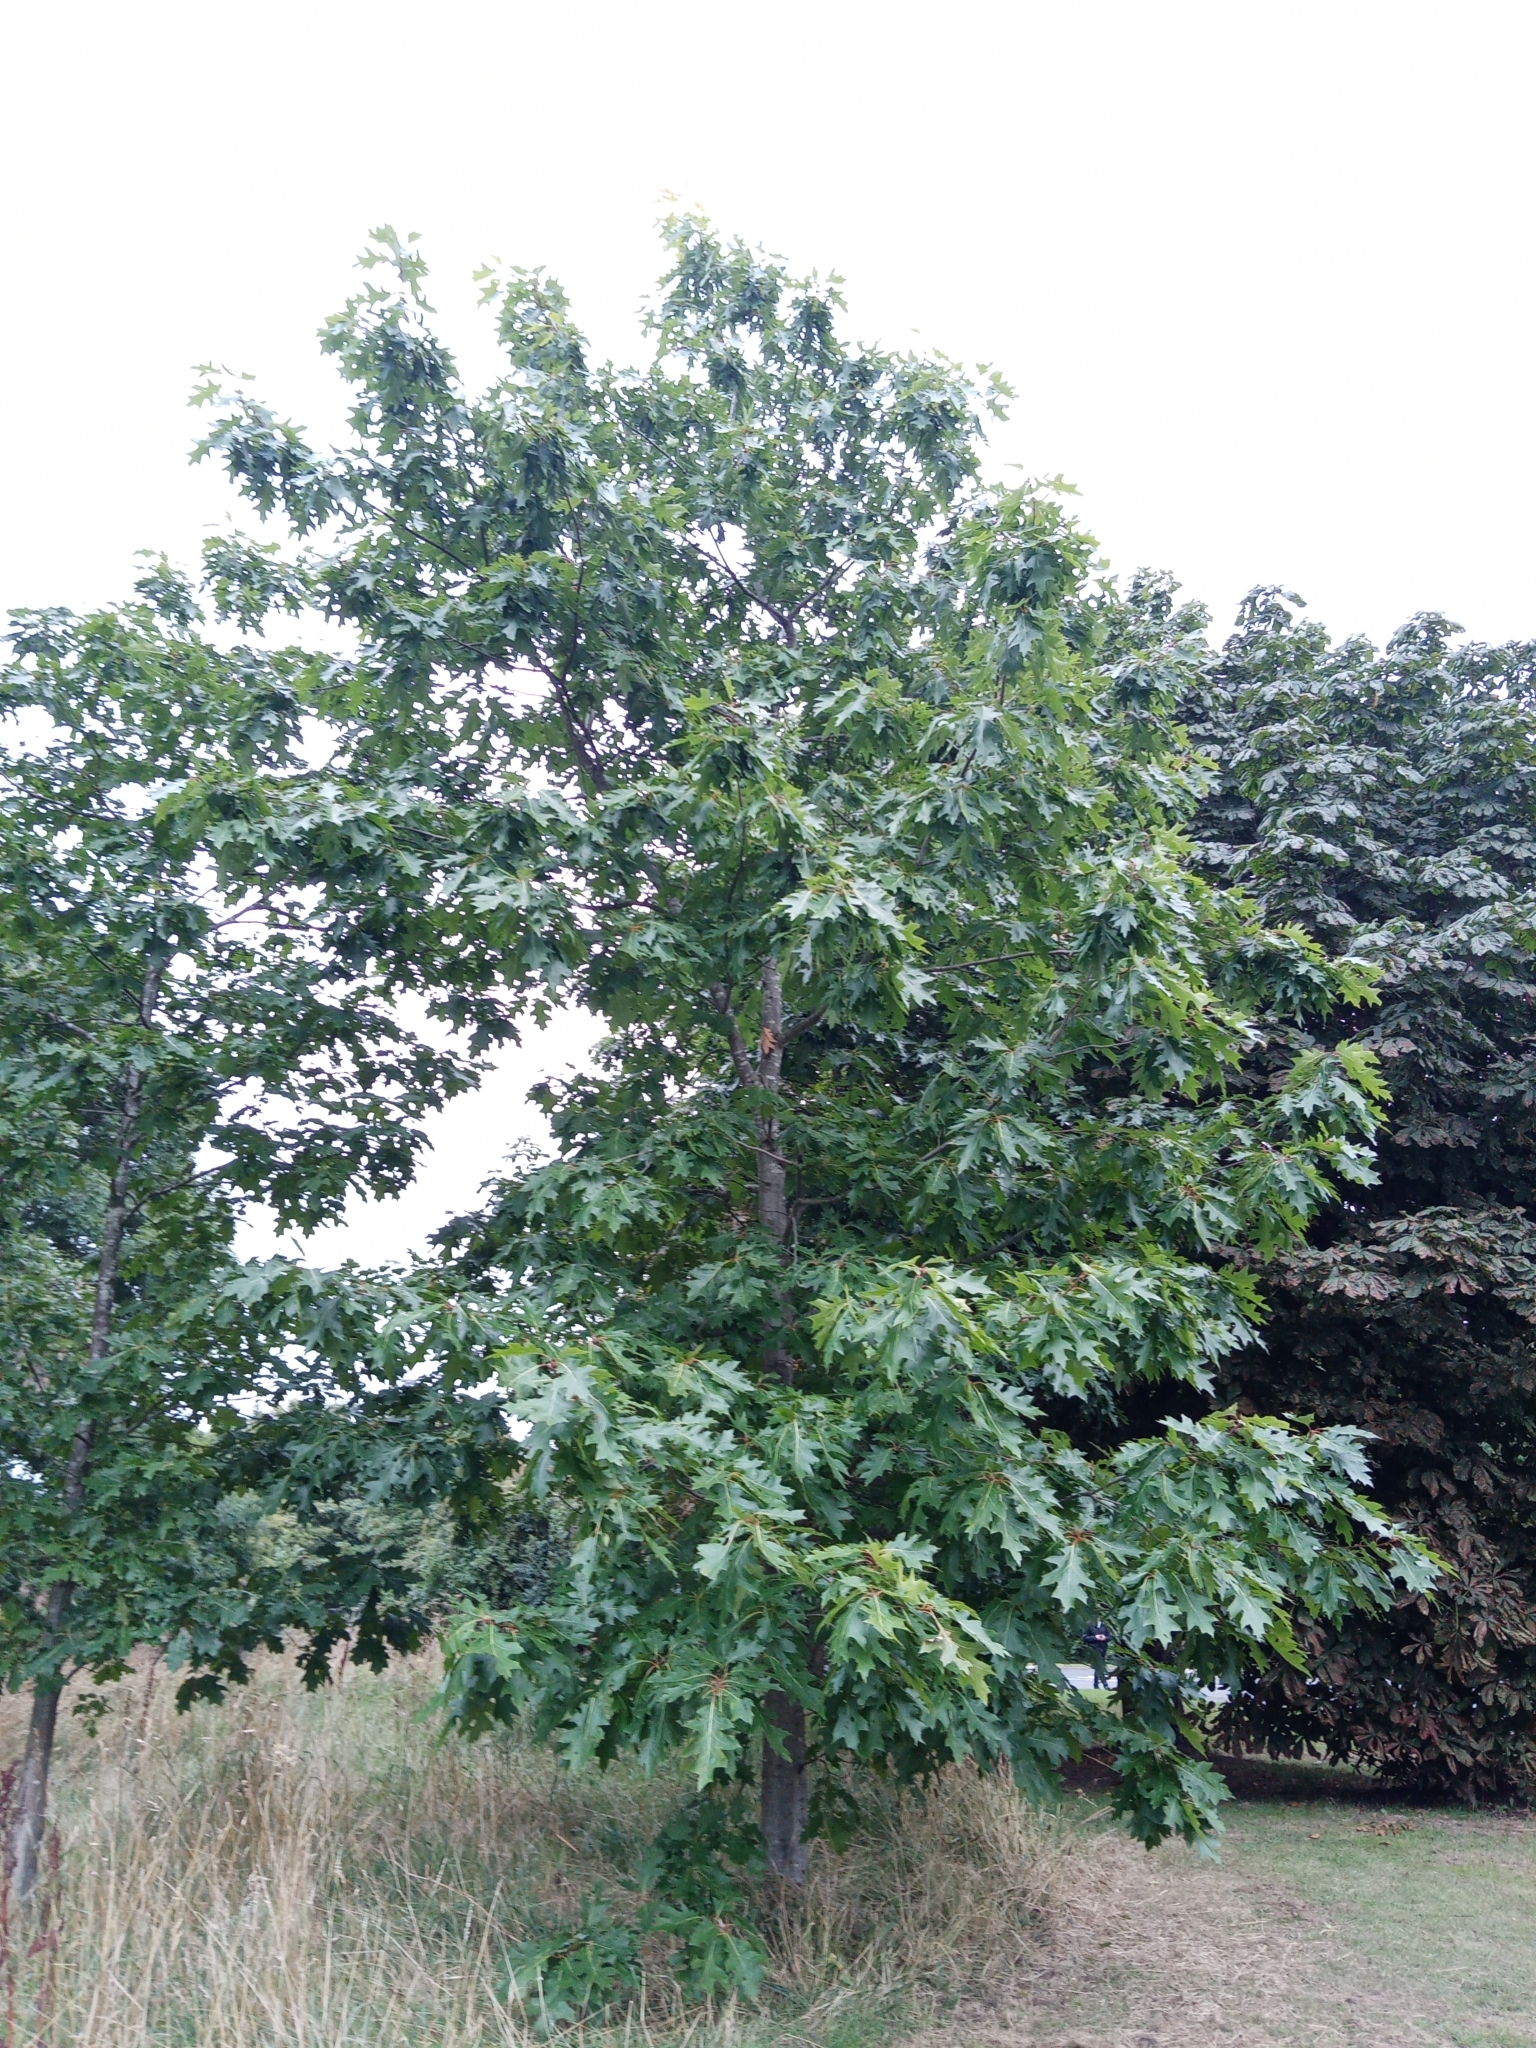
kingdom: Plantae
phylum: Tracheophyta
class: Magnoliopsida
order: Fagales
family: Fagaceae
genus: Quercus
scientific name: Quercus rubra
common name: Red oak
